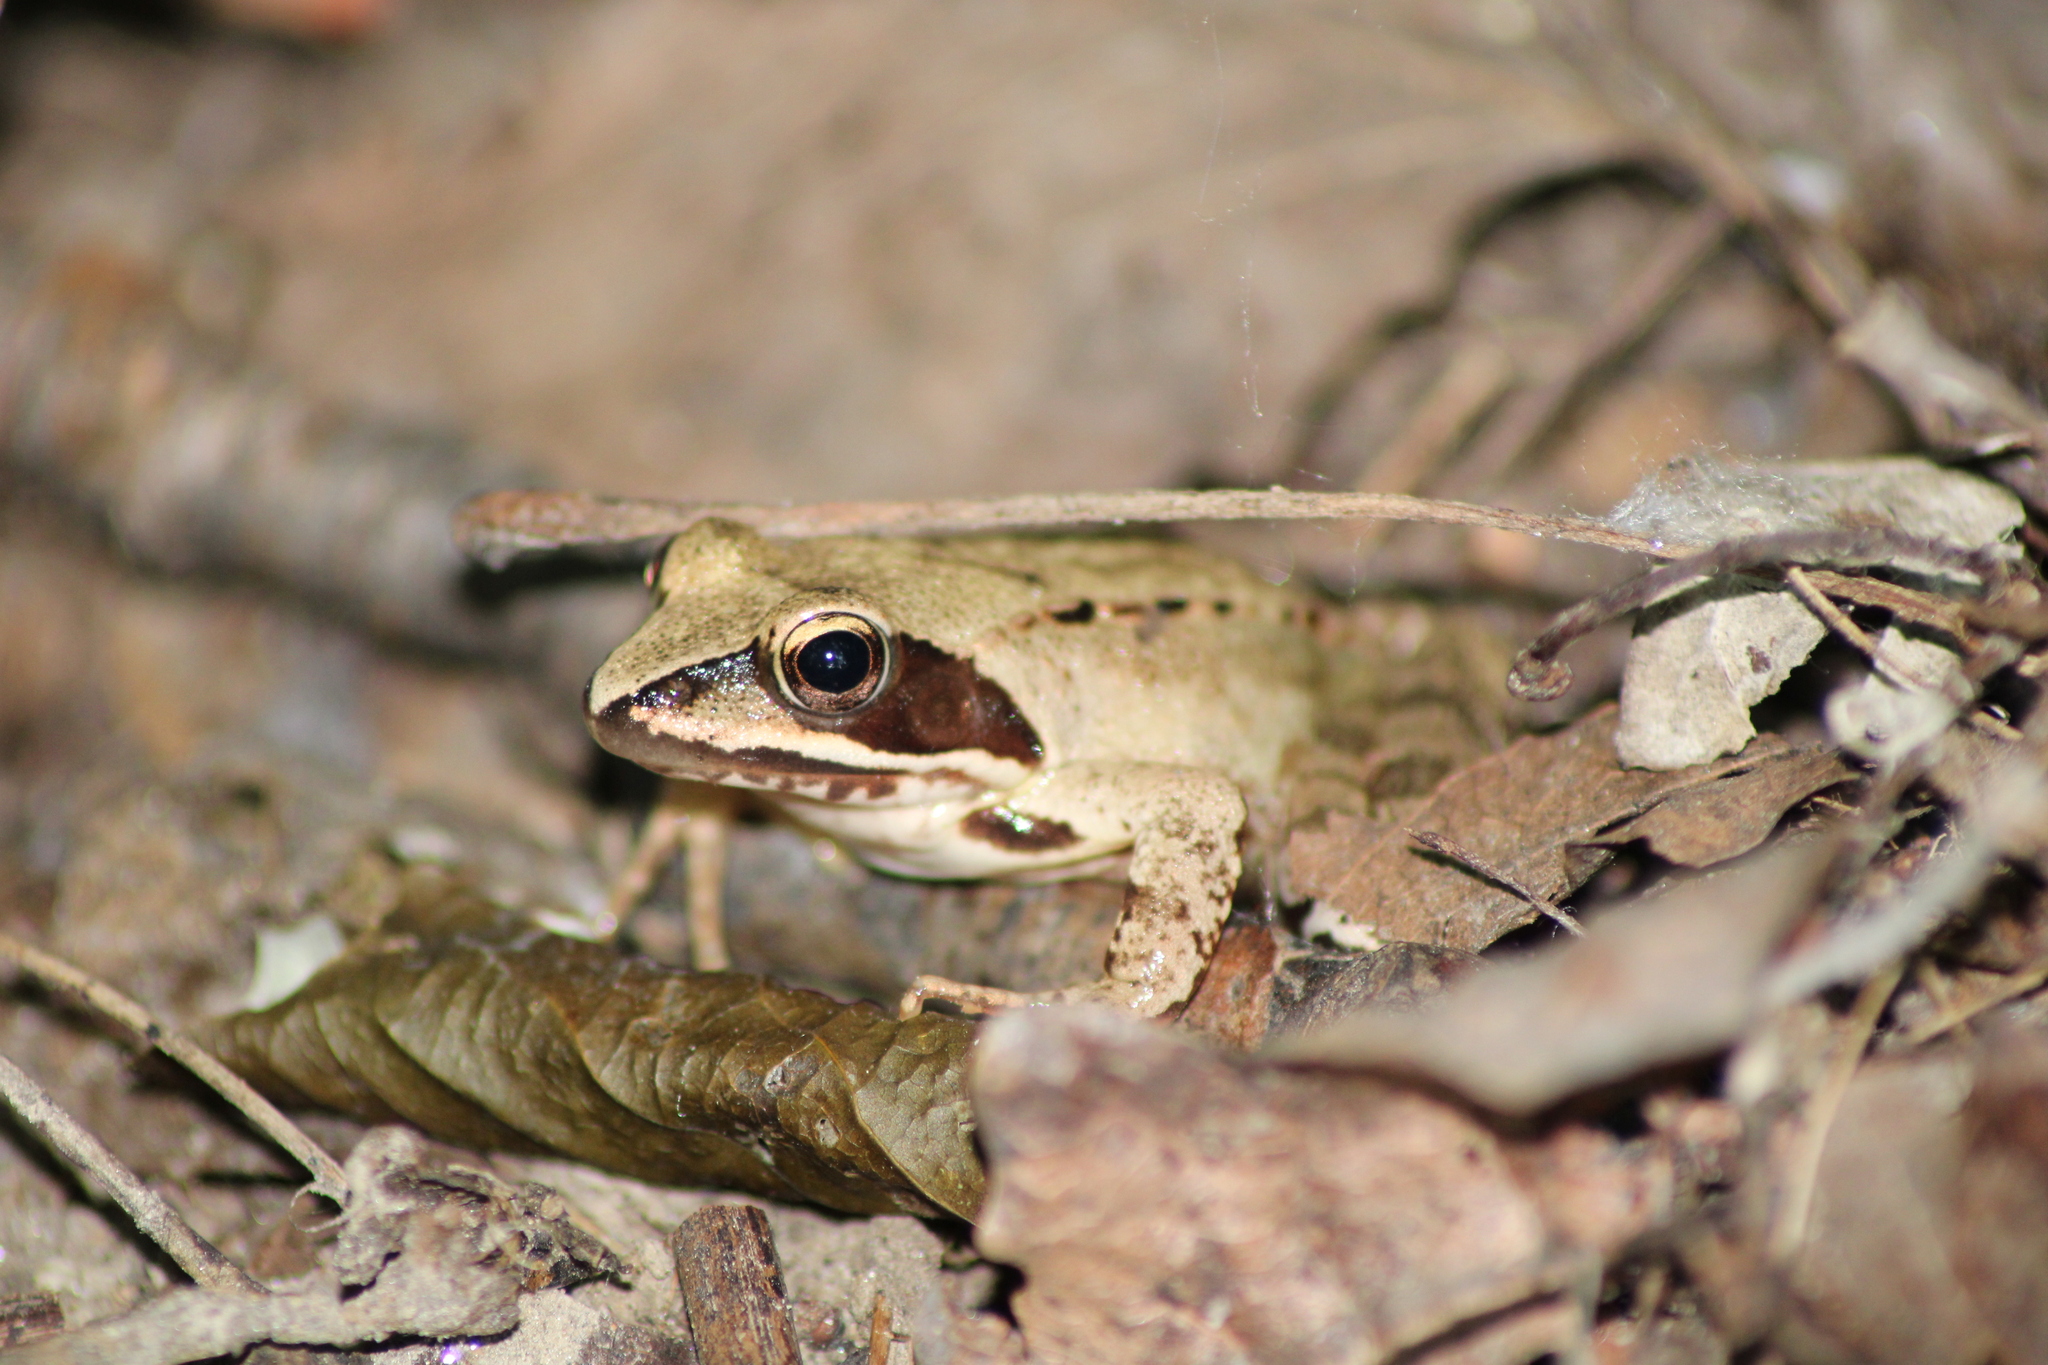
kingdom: Animalia
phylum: Chordata
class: Amphibia
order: Anura
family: Ranidae
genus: Rana
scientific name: Rana dalmatina
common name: Agile frog
